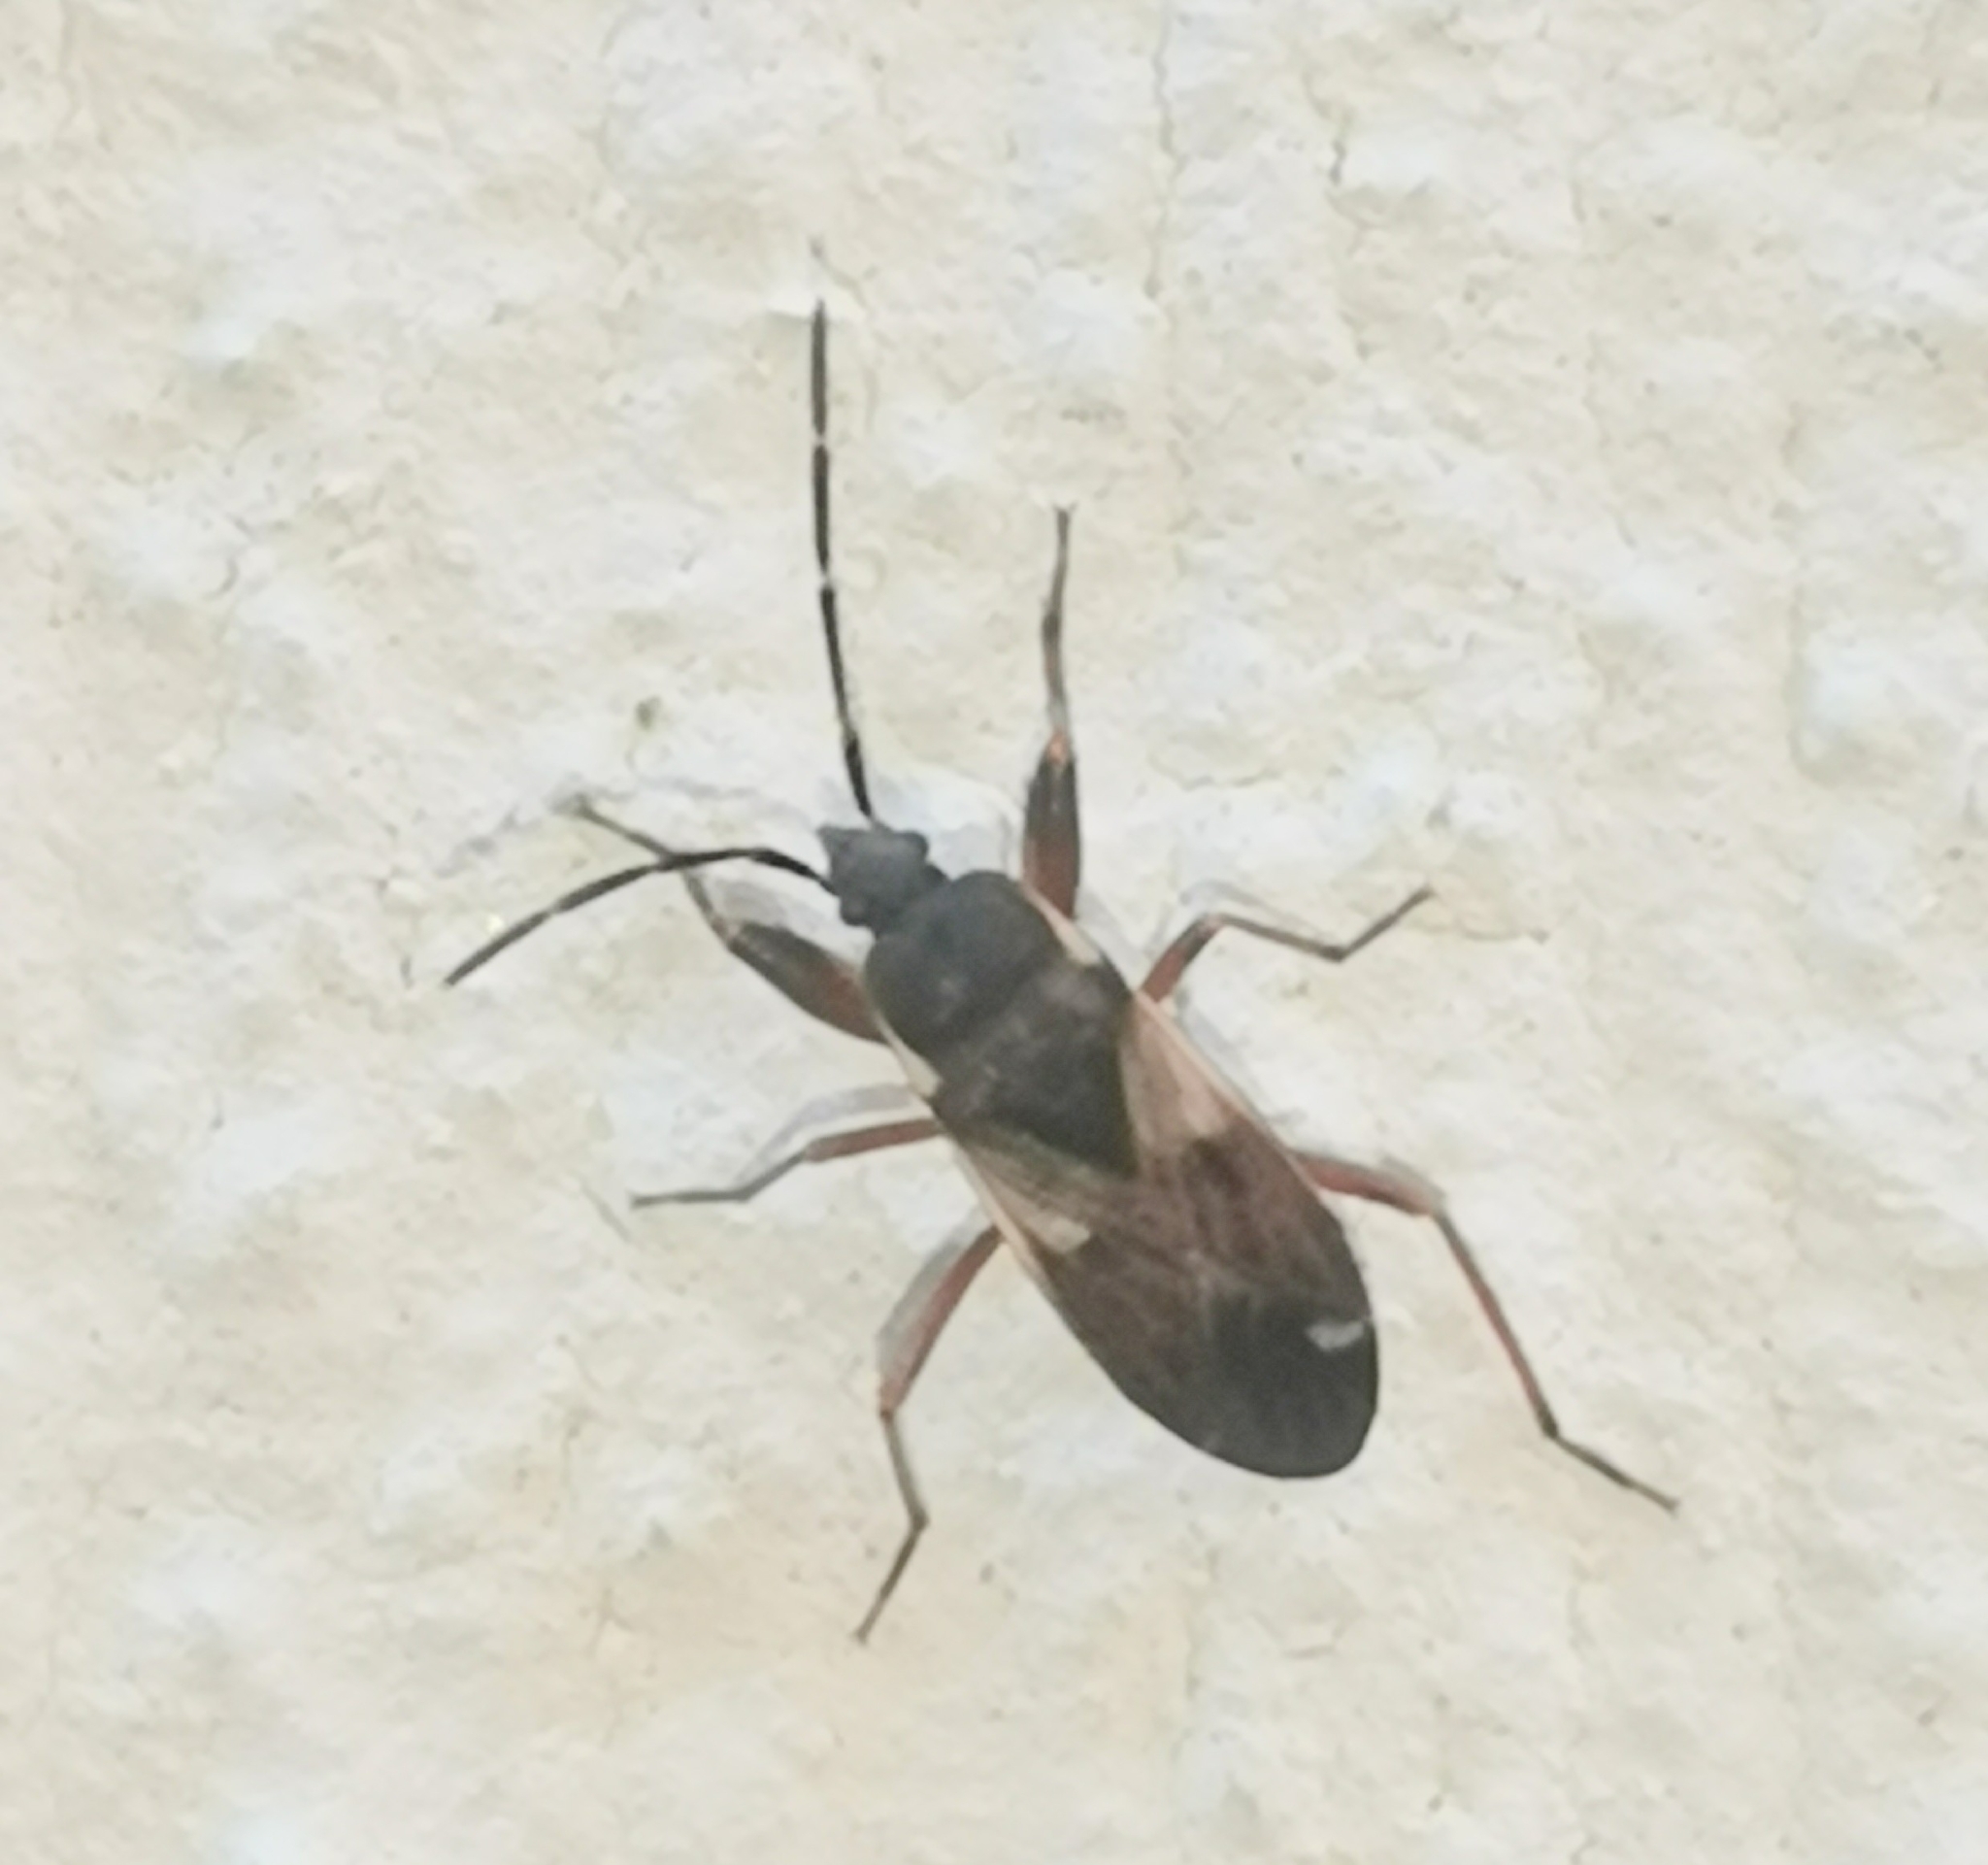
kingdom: Animalia
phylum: Arthropoda
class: Insecta
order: Hemiptera
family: Rhyparochromidae
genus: Eremocoris
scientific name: Eremocoris abietis
